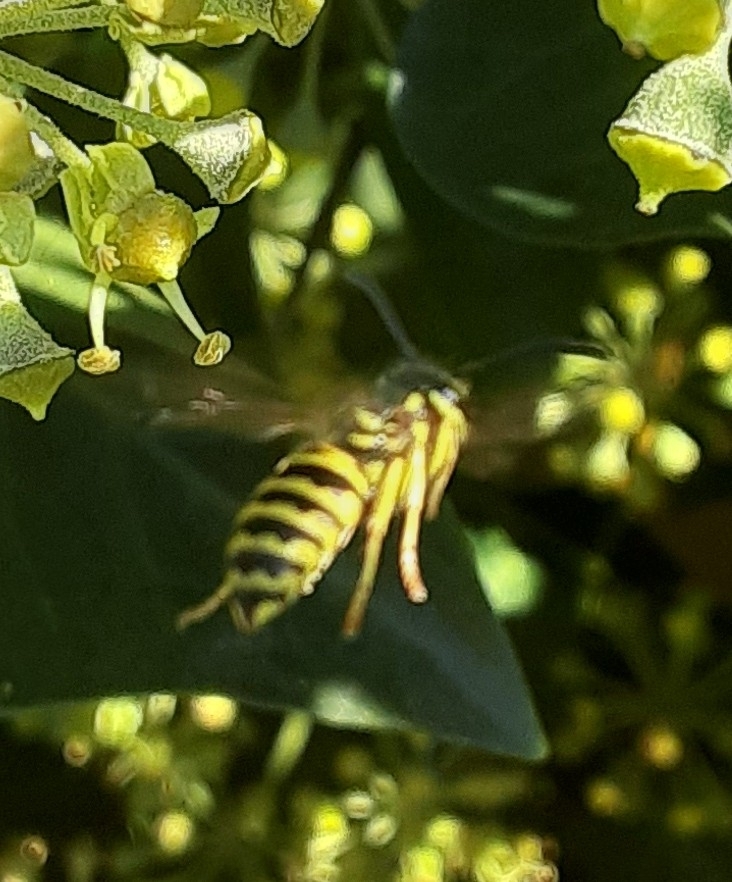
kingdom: Animalia
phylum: Arthropoda
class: Insecta
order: Hymenoptera
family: Vespidae
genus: Vespula
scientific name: Vespula maculifrons
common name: Eastern yellowjacket
